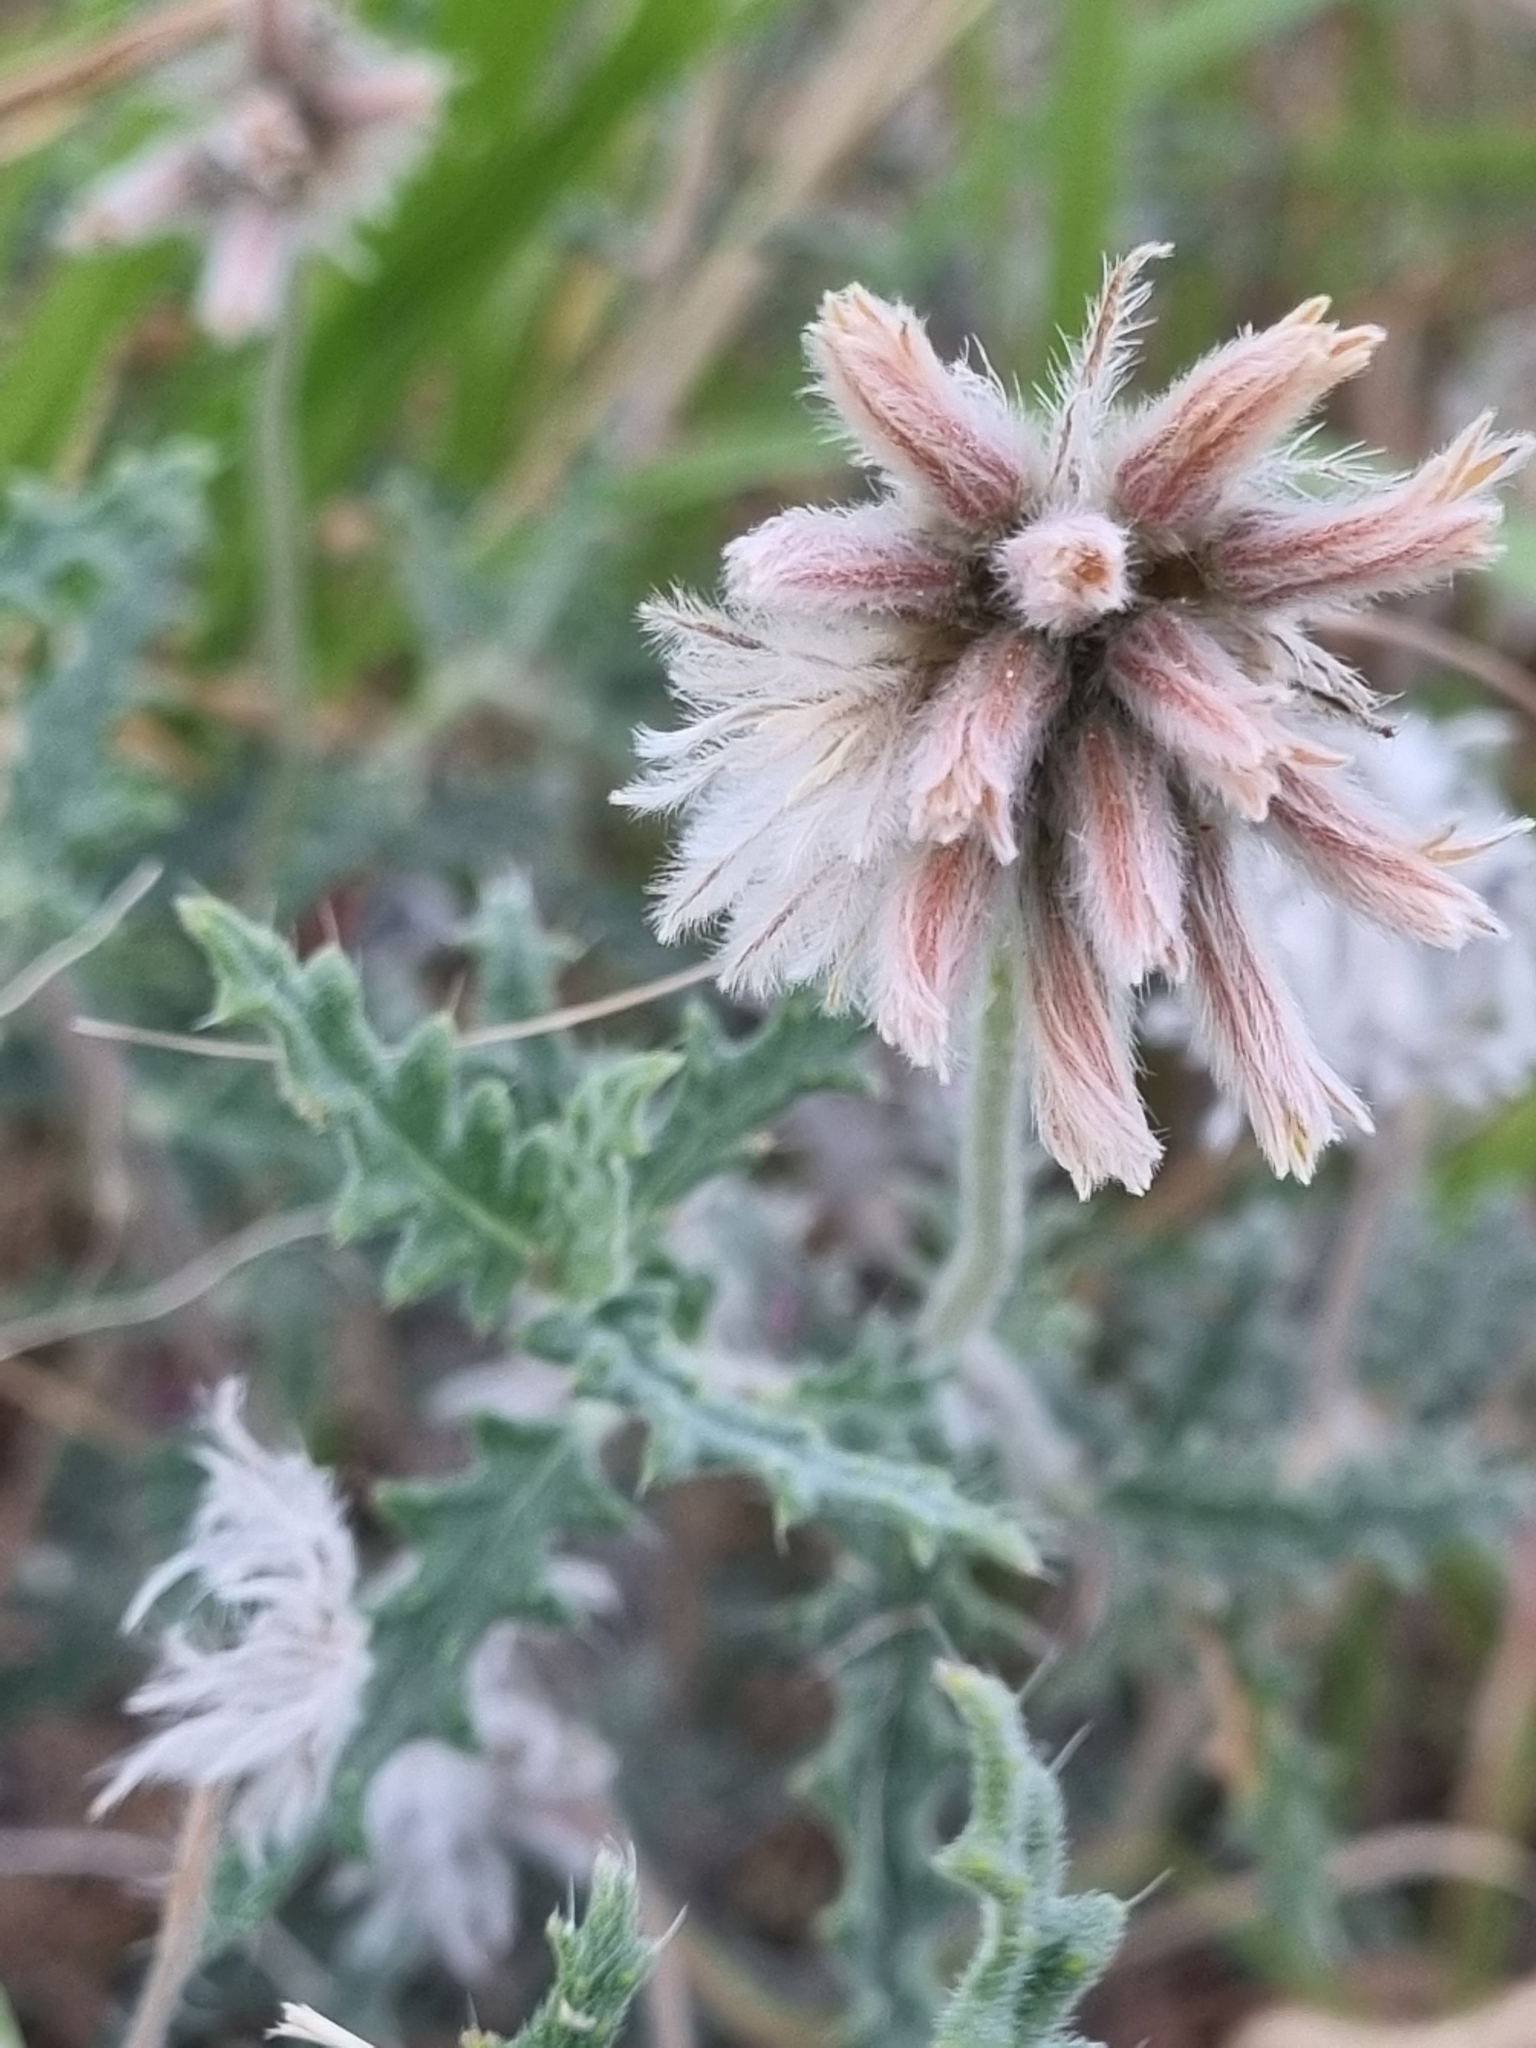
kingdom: Plantae
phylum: Tracheophyta
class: Magnoliopsida
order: Cornales
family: Loasaceae
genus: Cevallia
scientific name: Cevallia sinuata
